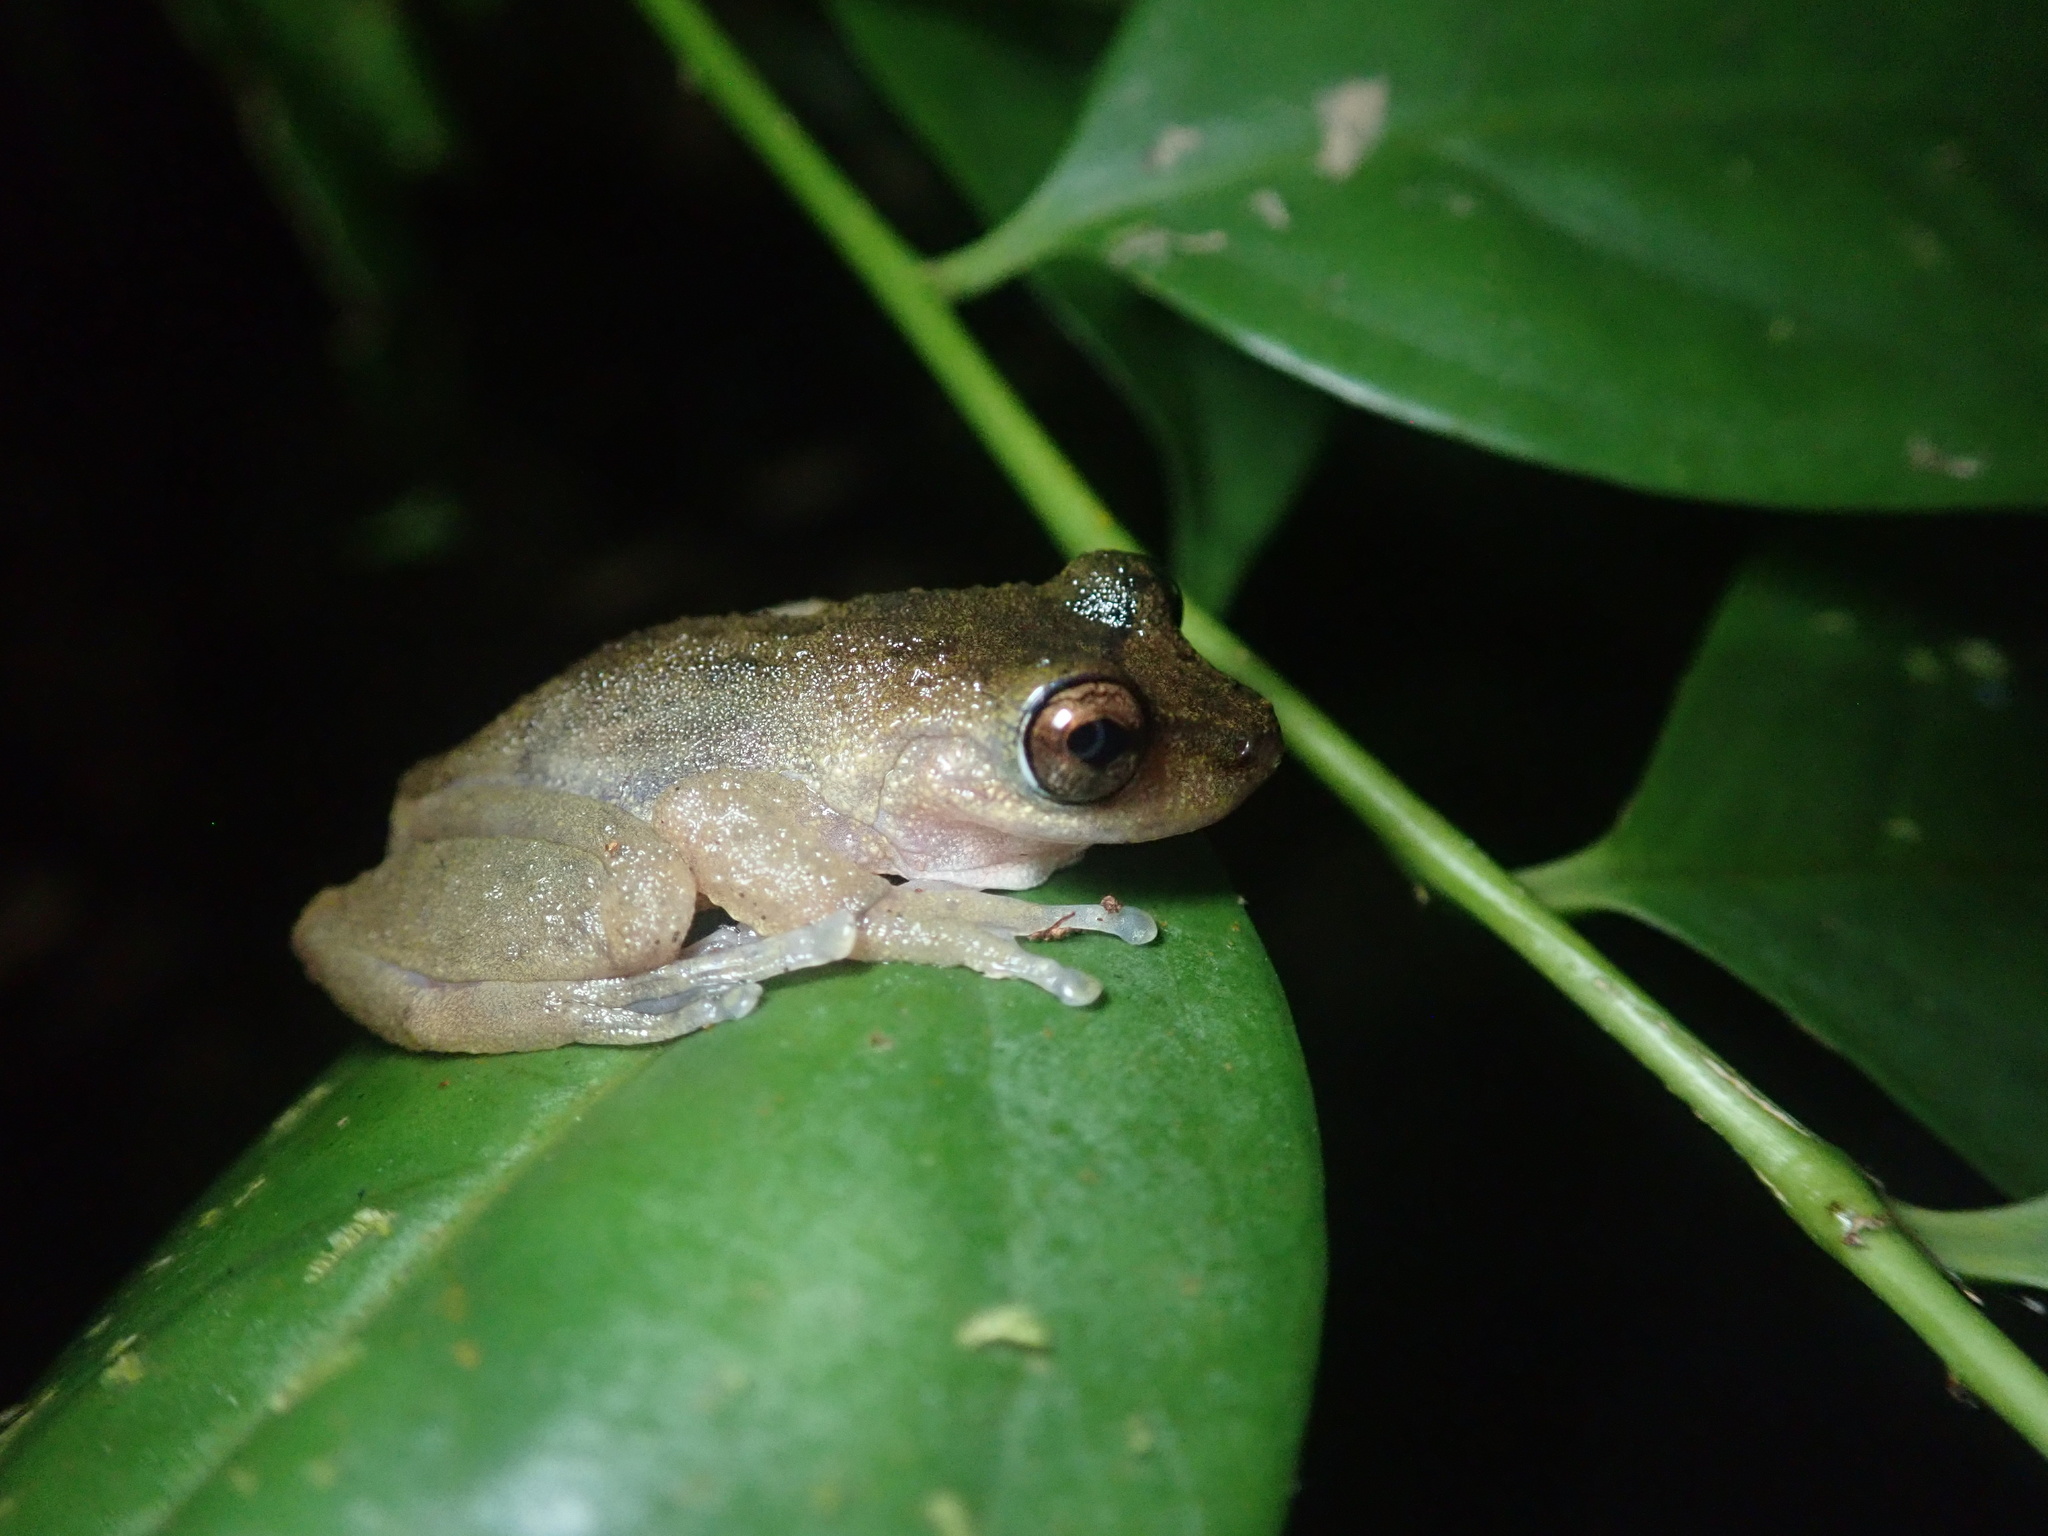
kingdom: Animalia
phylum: Chordata
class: Amphibia
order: Anura
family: Pelodryadidae
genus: Ranoidea
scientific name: Ranoidea rheocola
